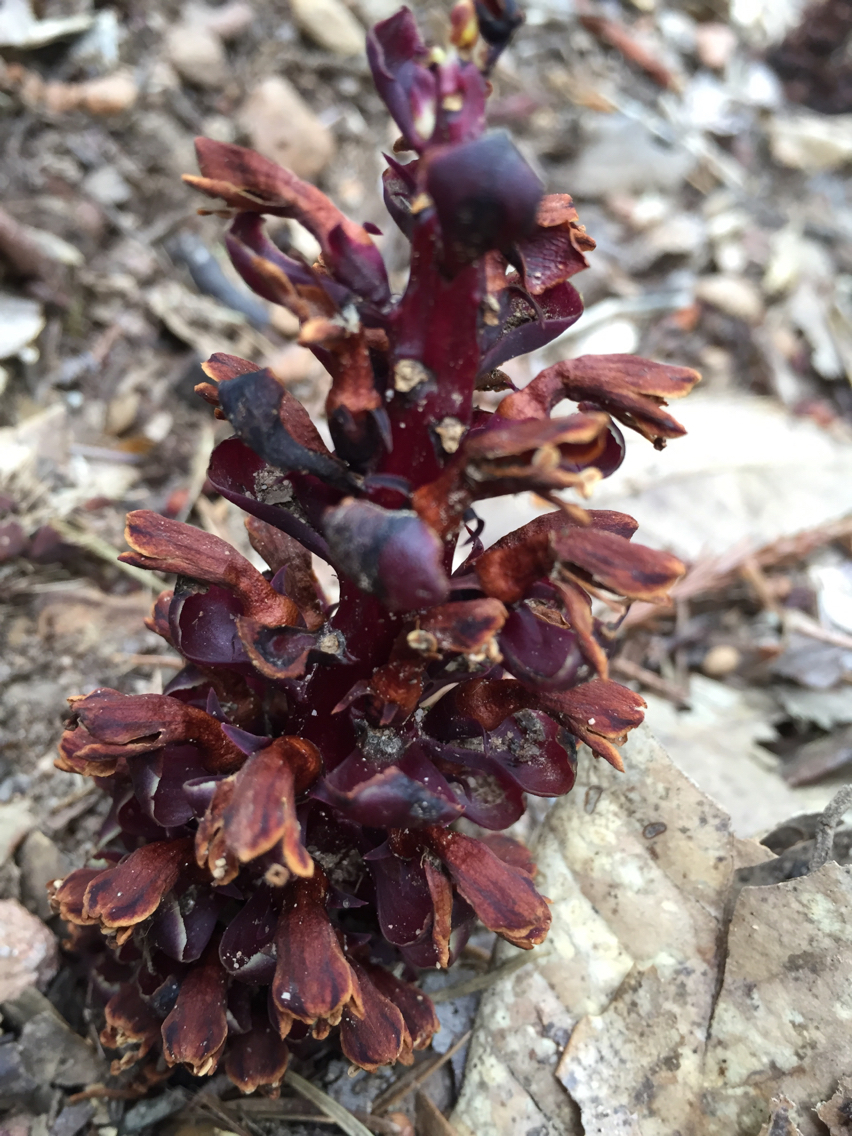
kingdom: Plantae
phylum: Tracheophyta
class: Magnoliopsida
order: Lamiales
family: Orobanchaceae
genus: Kopsiopsis
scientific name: Kopsiopsis strobilacea
